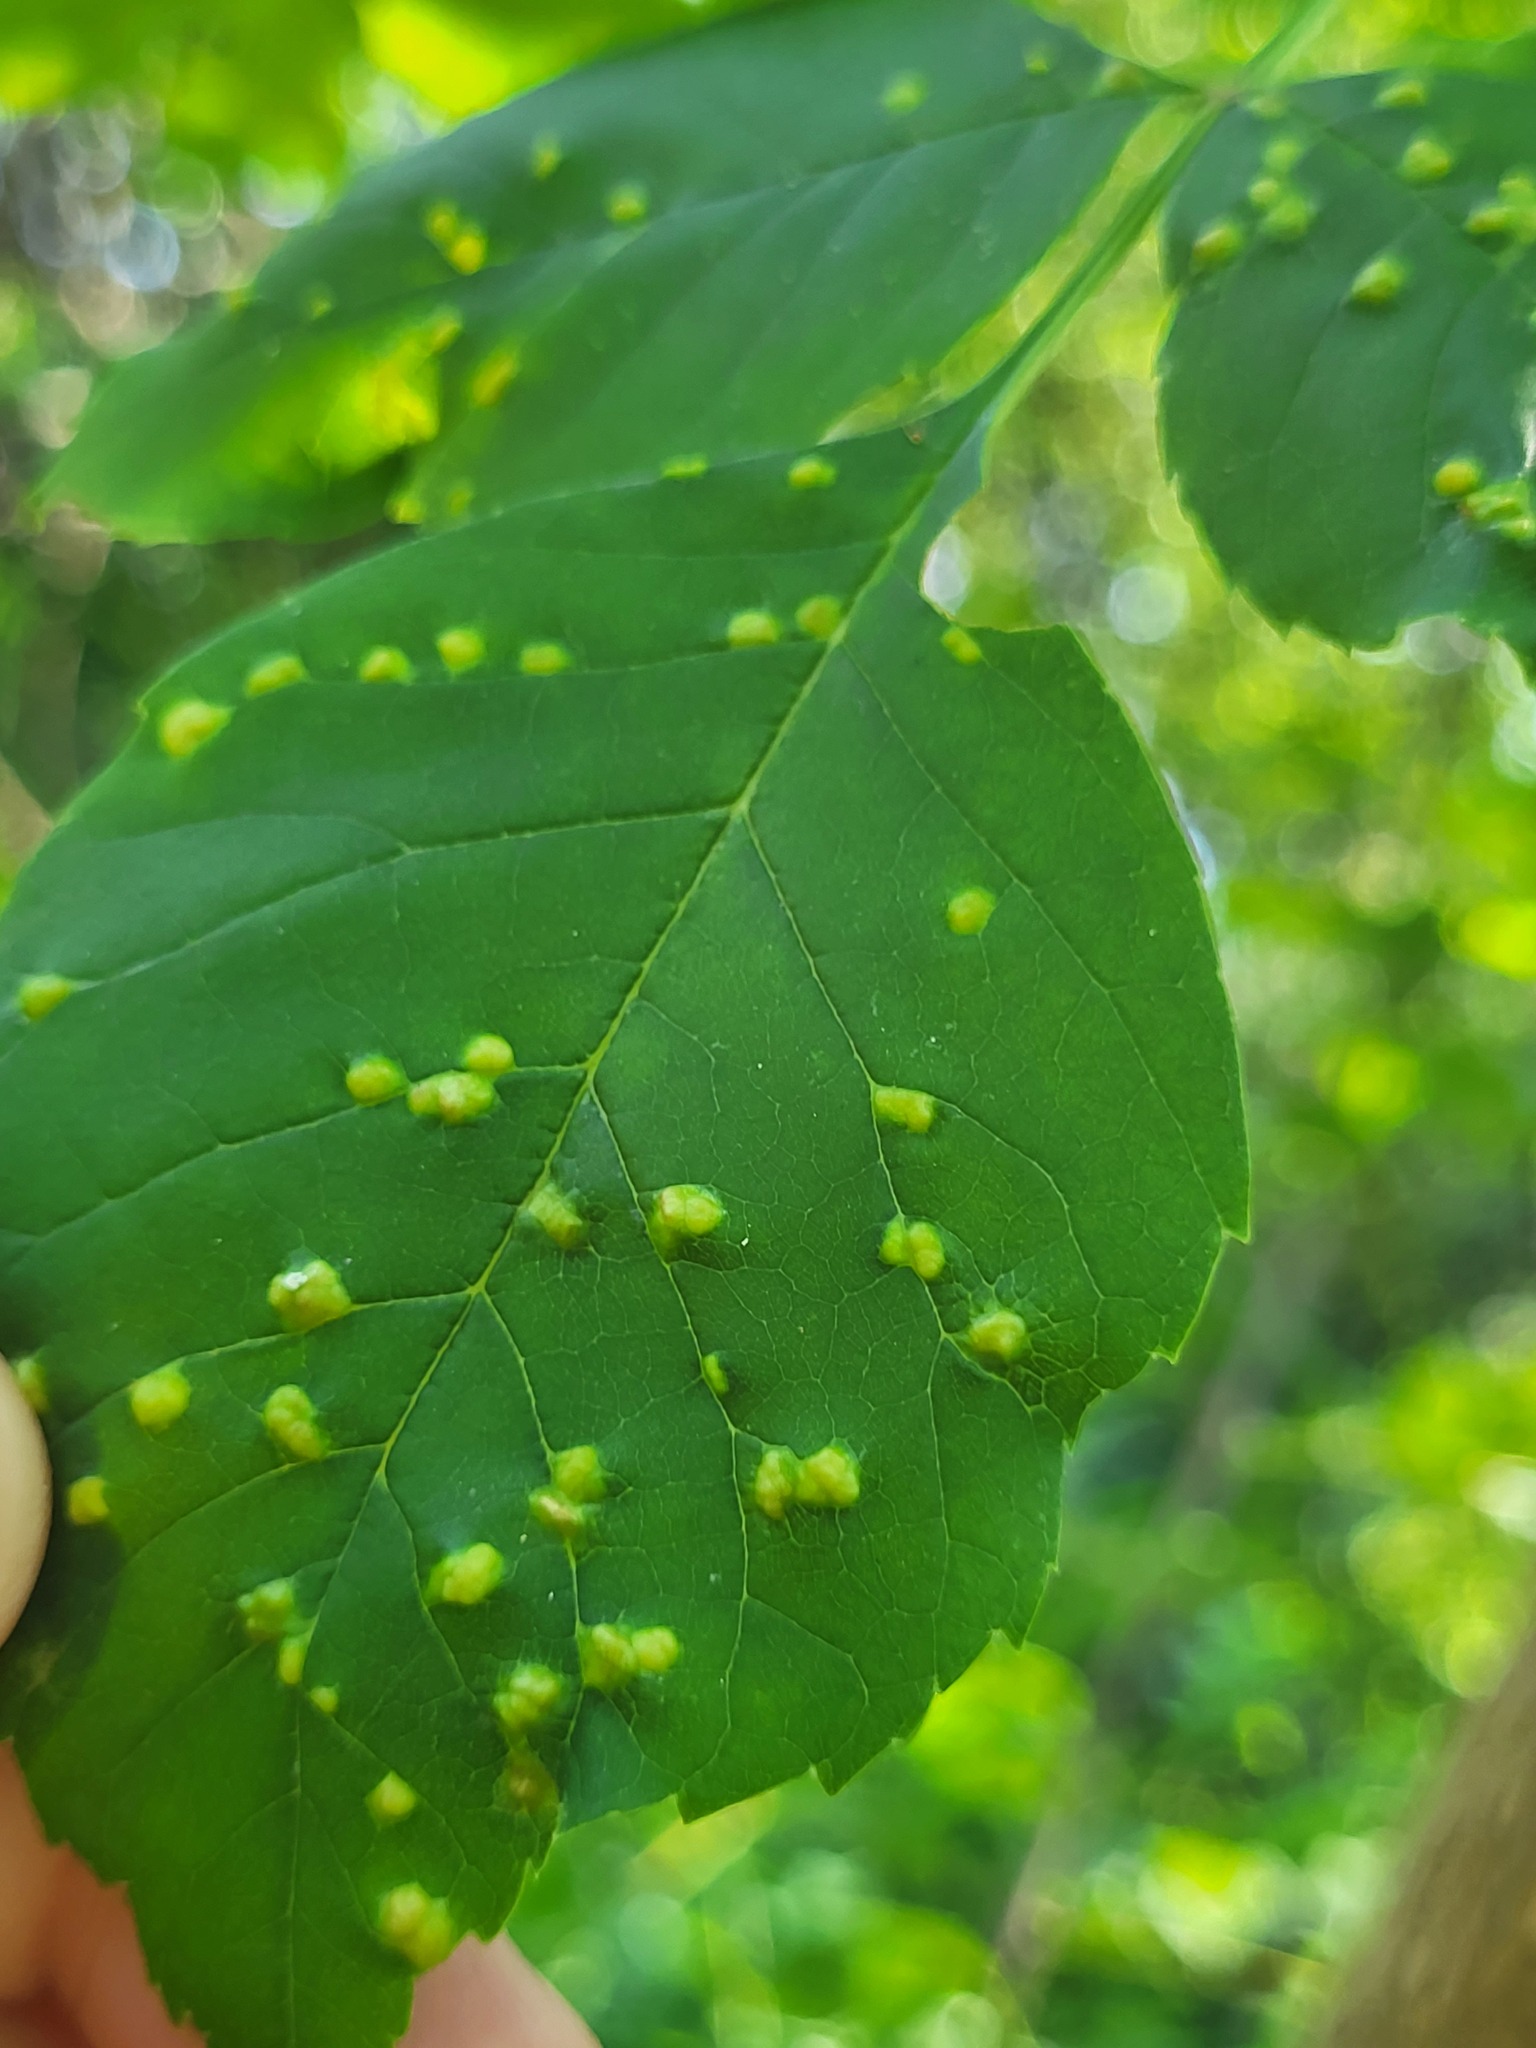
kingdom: Animalia
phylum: Arthropoda
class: Arachnida
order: Trombidiformes
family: Eriophyidae
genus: Aceria
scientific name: Aceria fraxinicola
